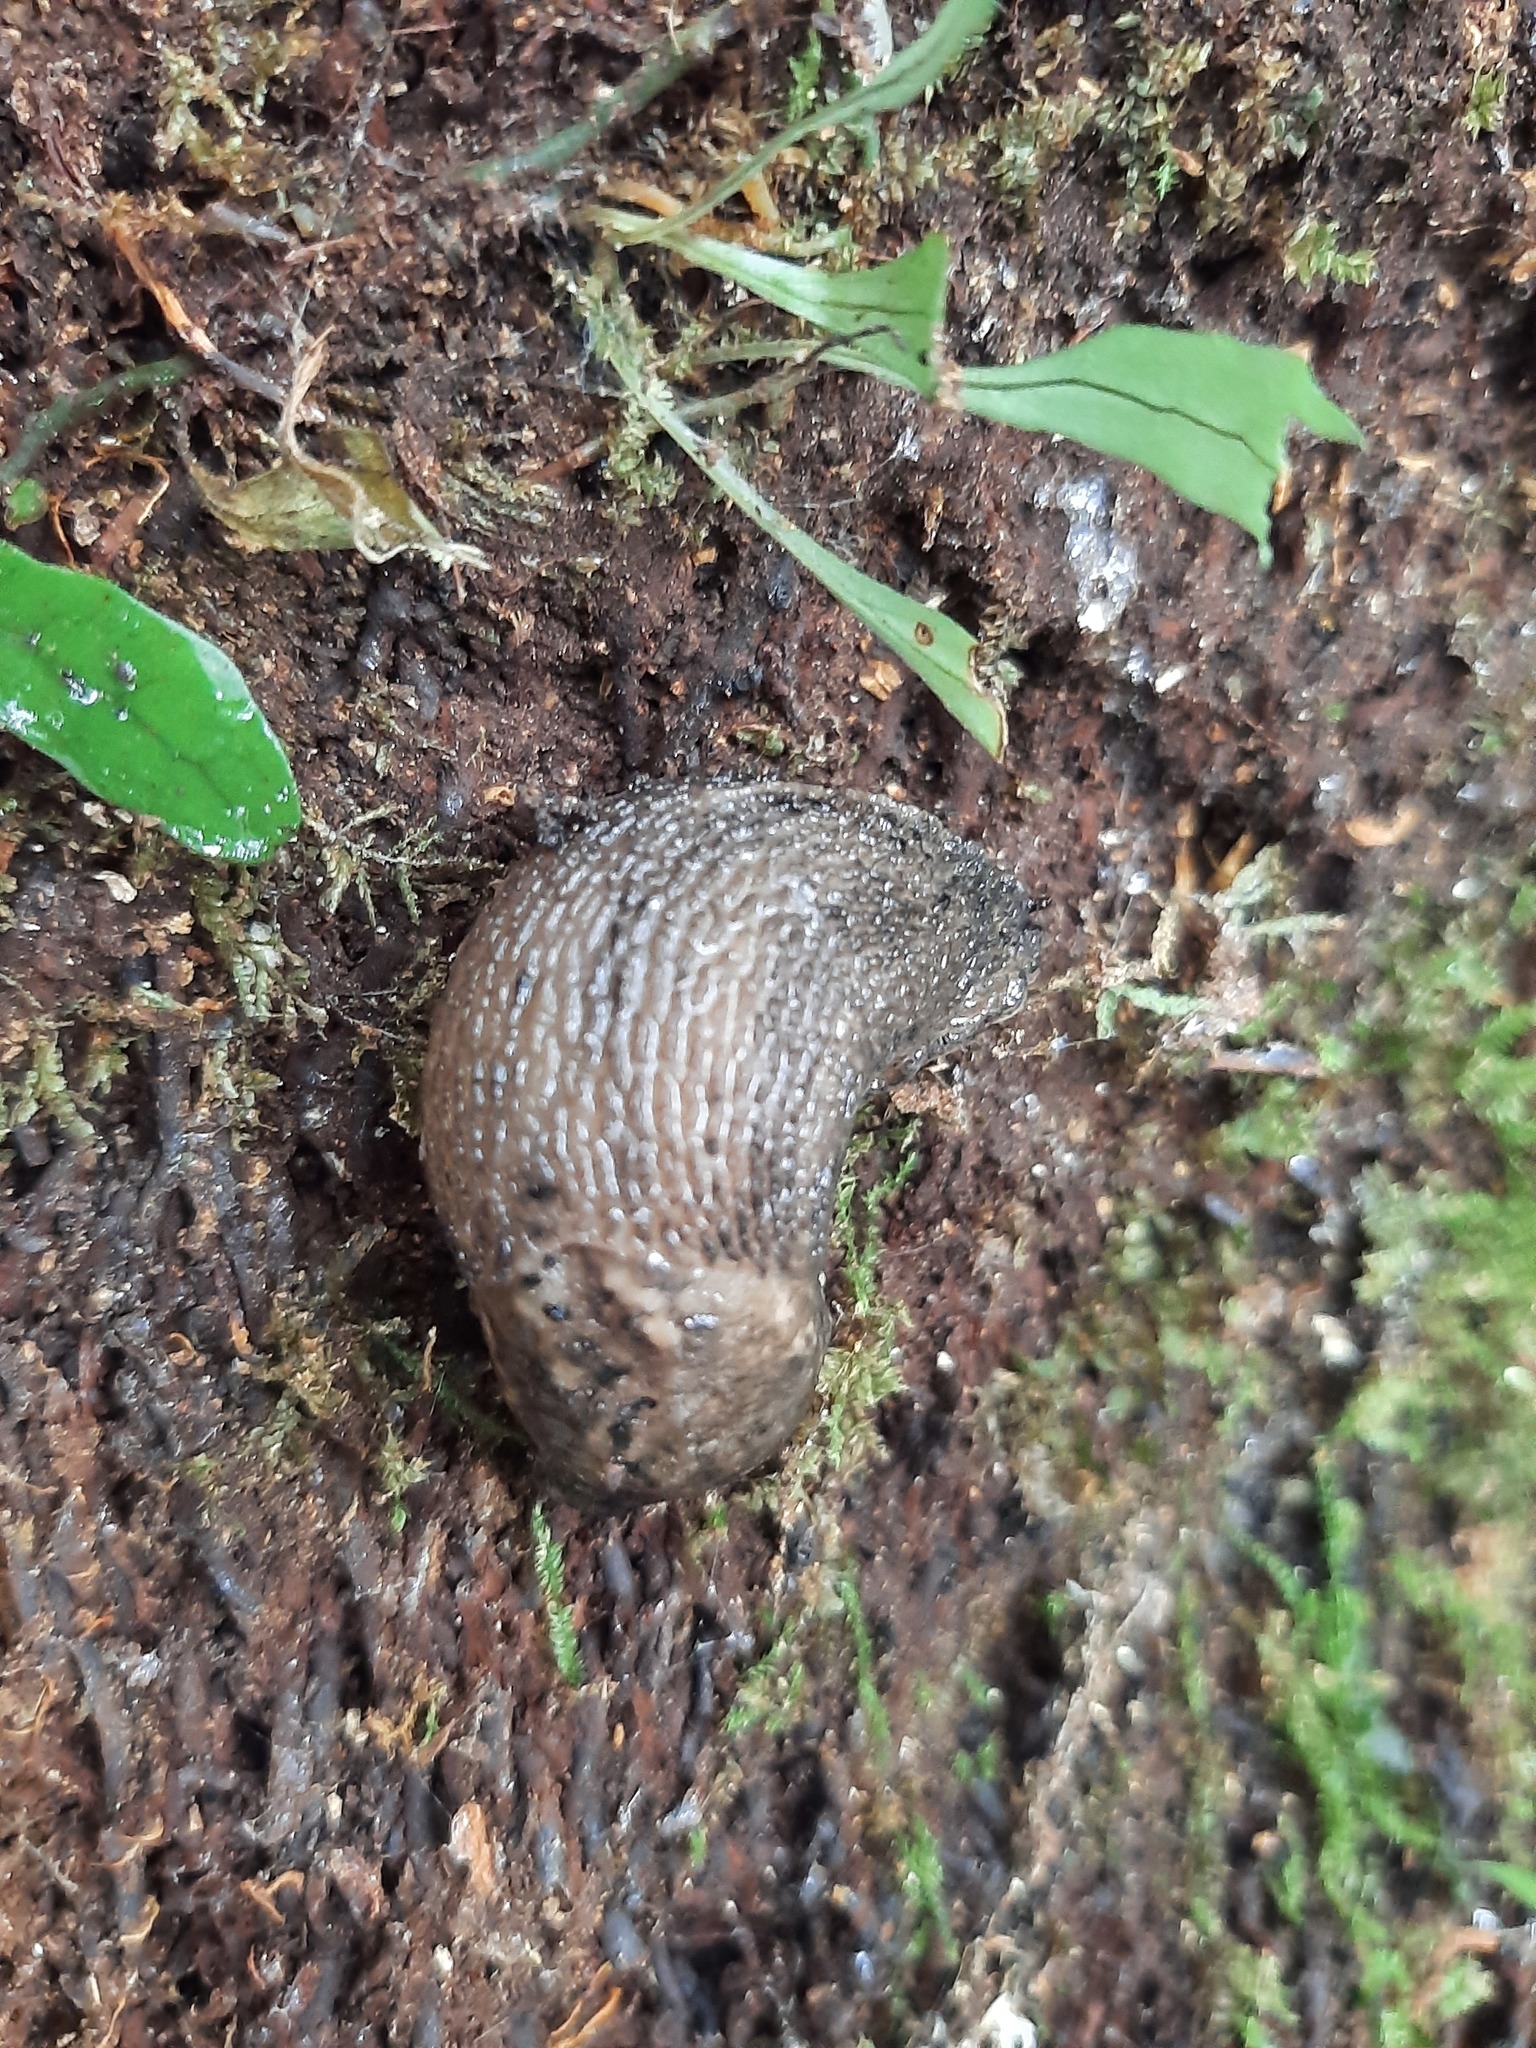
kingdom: Animalia
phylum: Mollusca
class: Gastropoda
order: Stylommatophora
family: Limacidae
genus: Limax
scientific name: Limax maximus
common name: Great grey slug
